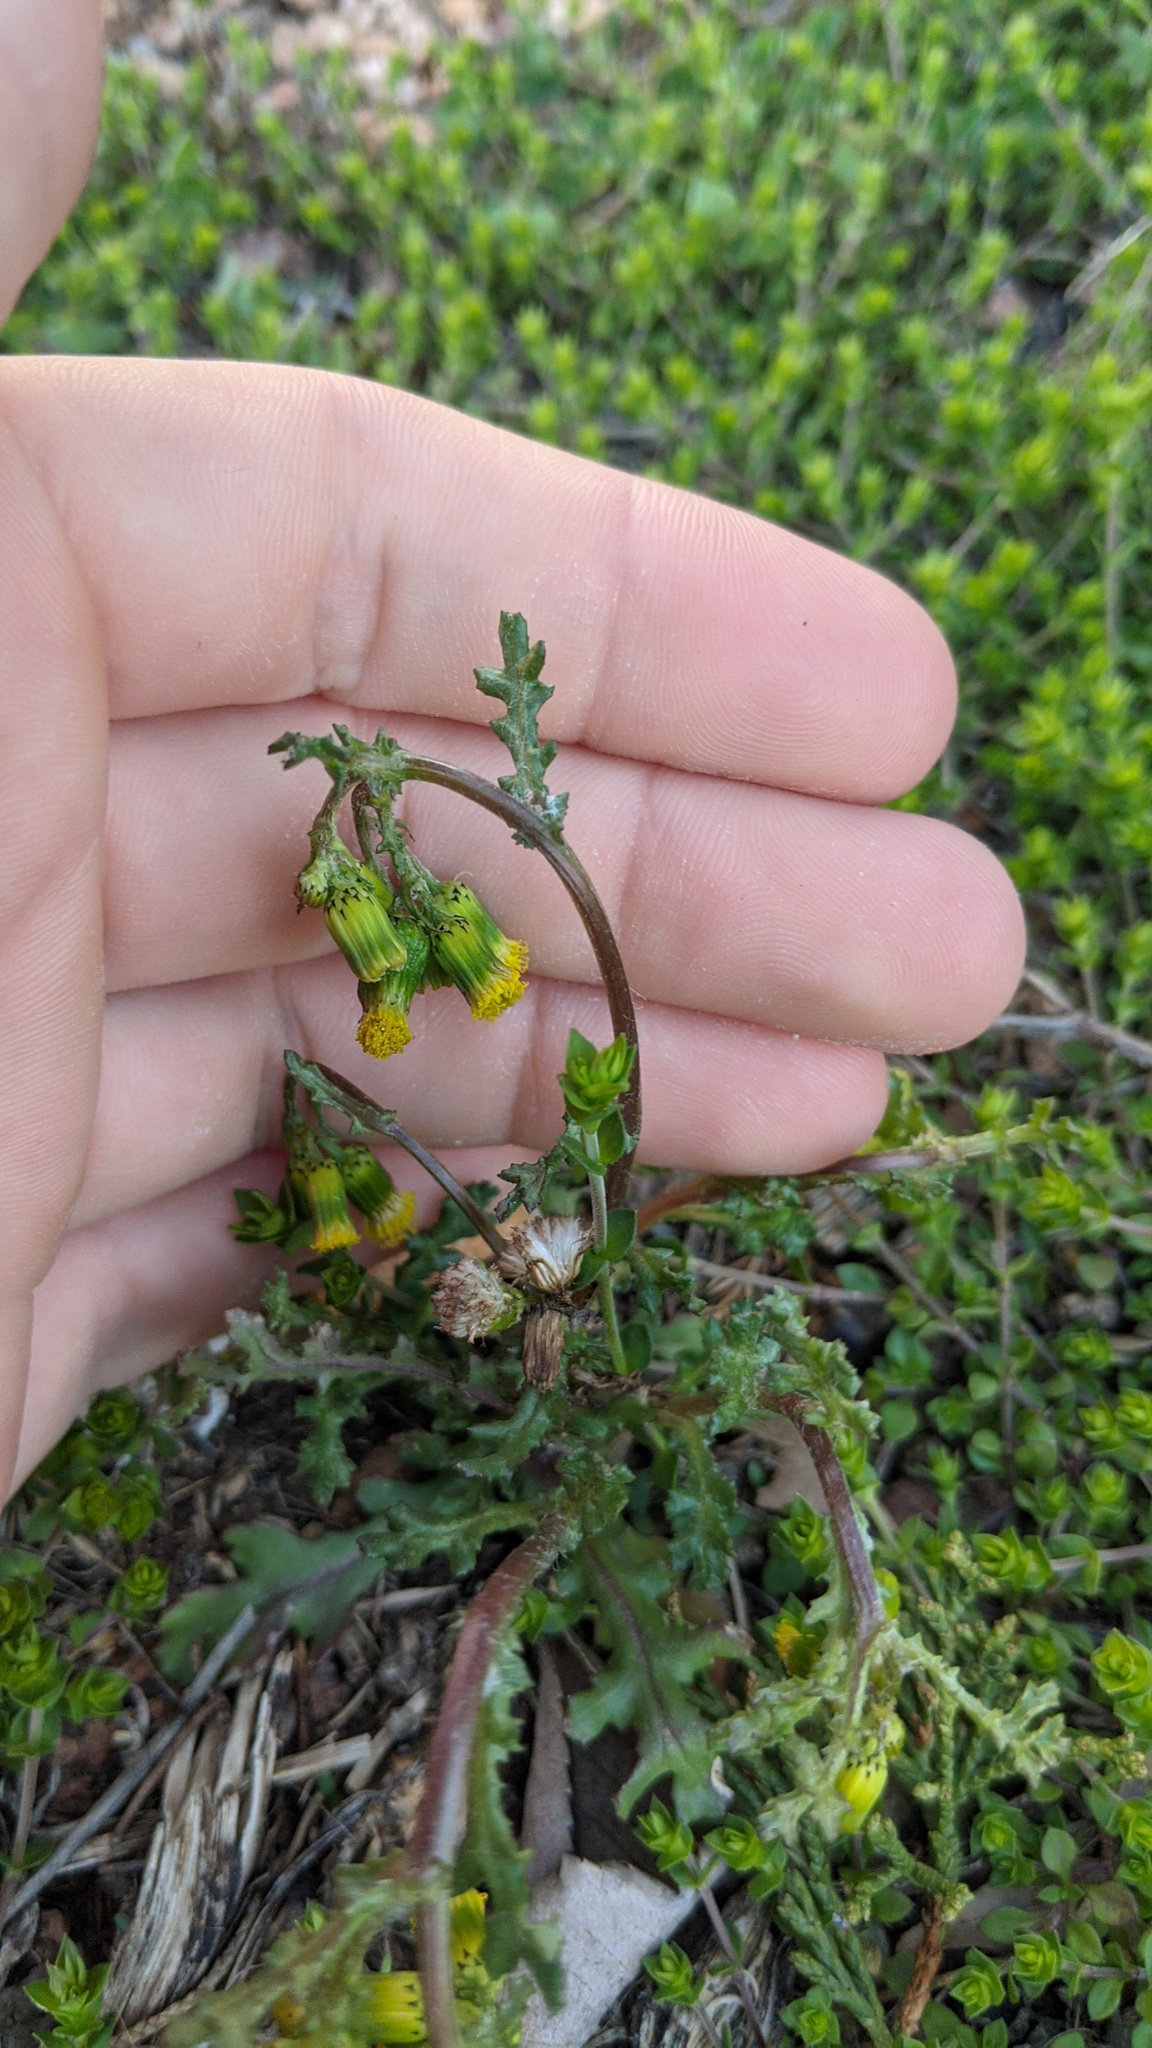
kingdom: Plantae
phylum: Tracheophyta
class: Magnoliopsida
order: Asterales
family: Asteraceae
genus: Senecio
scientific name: Senecio vulgaris
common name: Old-man-in-the-spring
